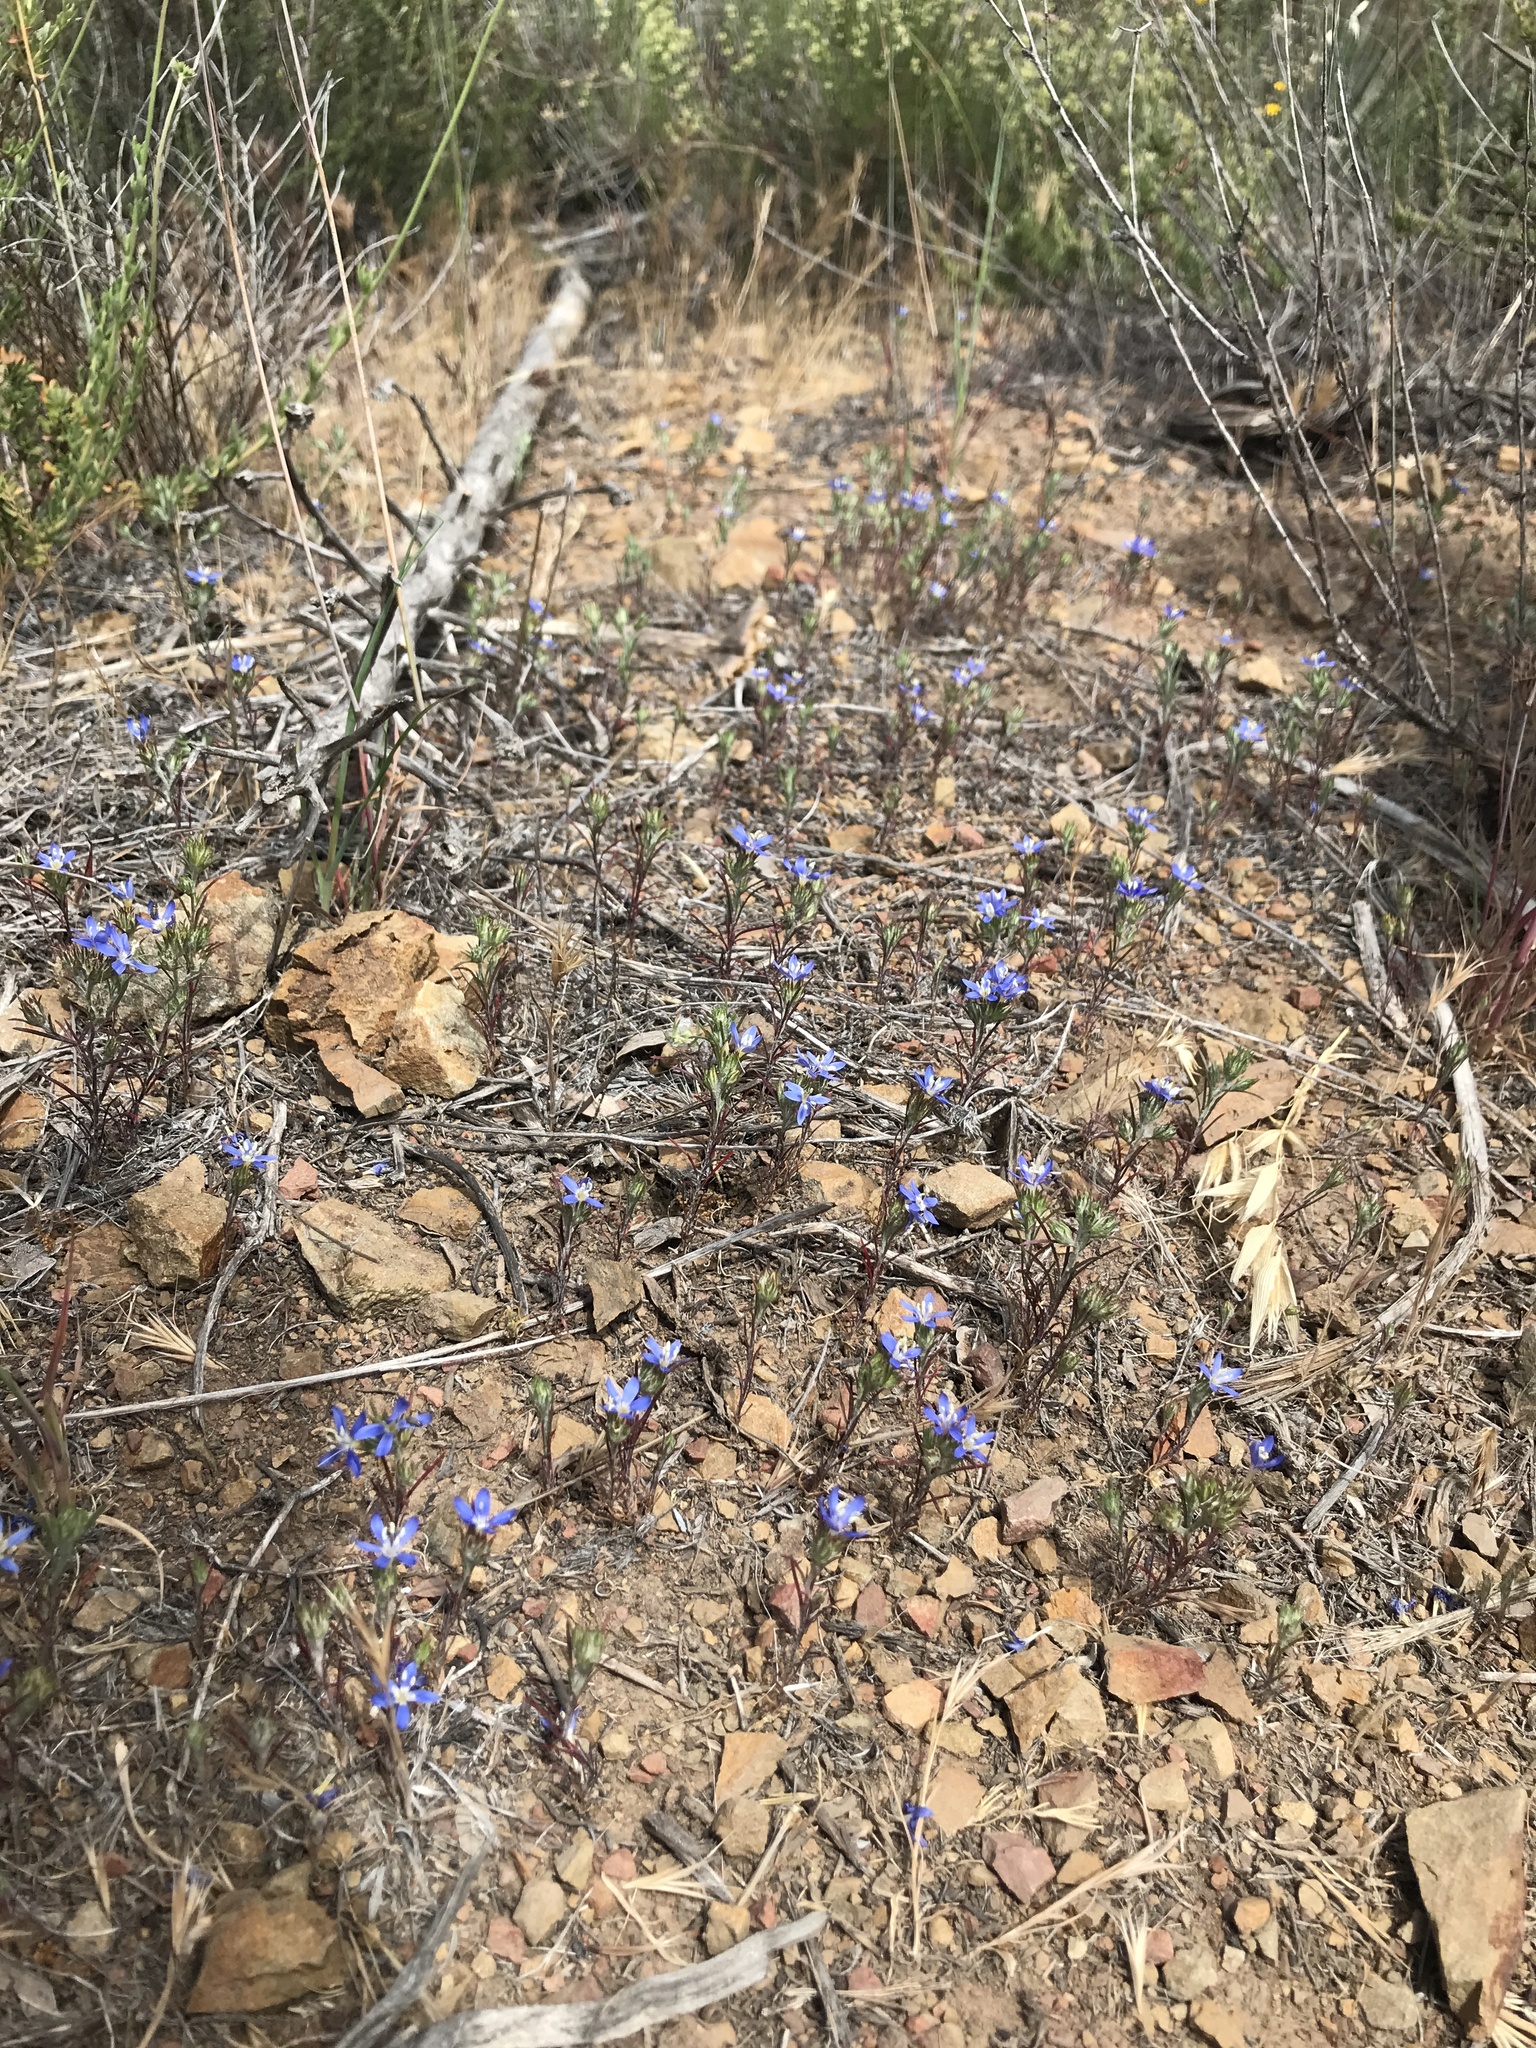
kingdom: Plantae
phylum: Tracheophyta
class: Magnoliopsida
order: Ericales
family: Polemoniaceae
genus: Eriastrum
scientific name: Eriastrum sapphirinum
